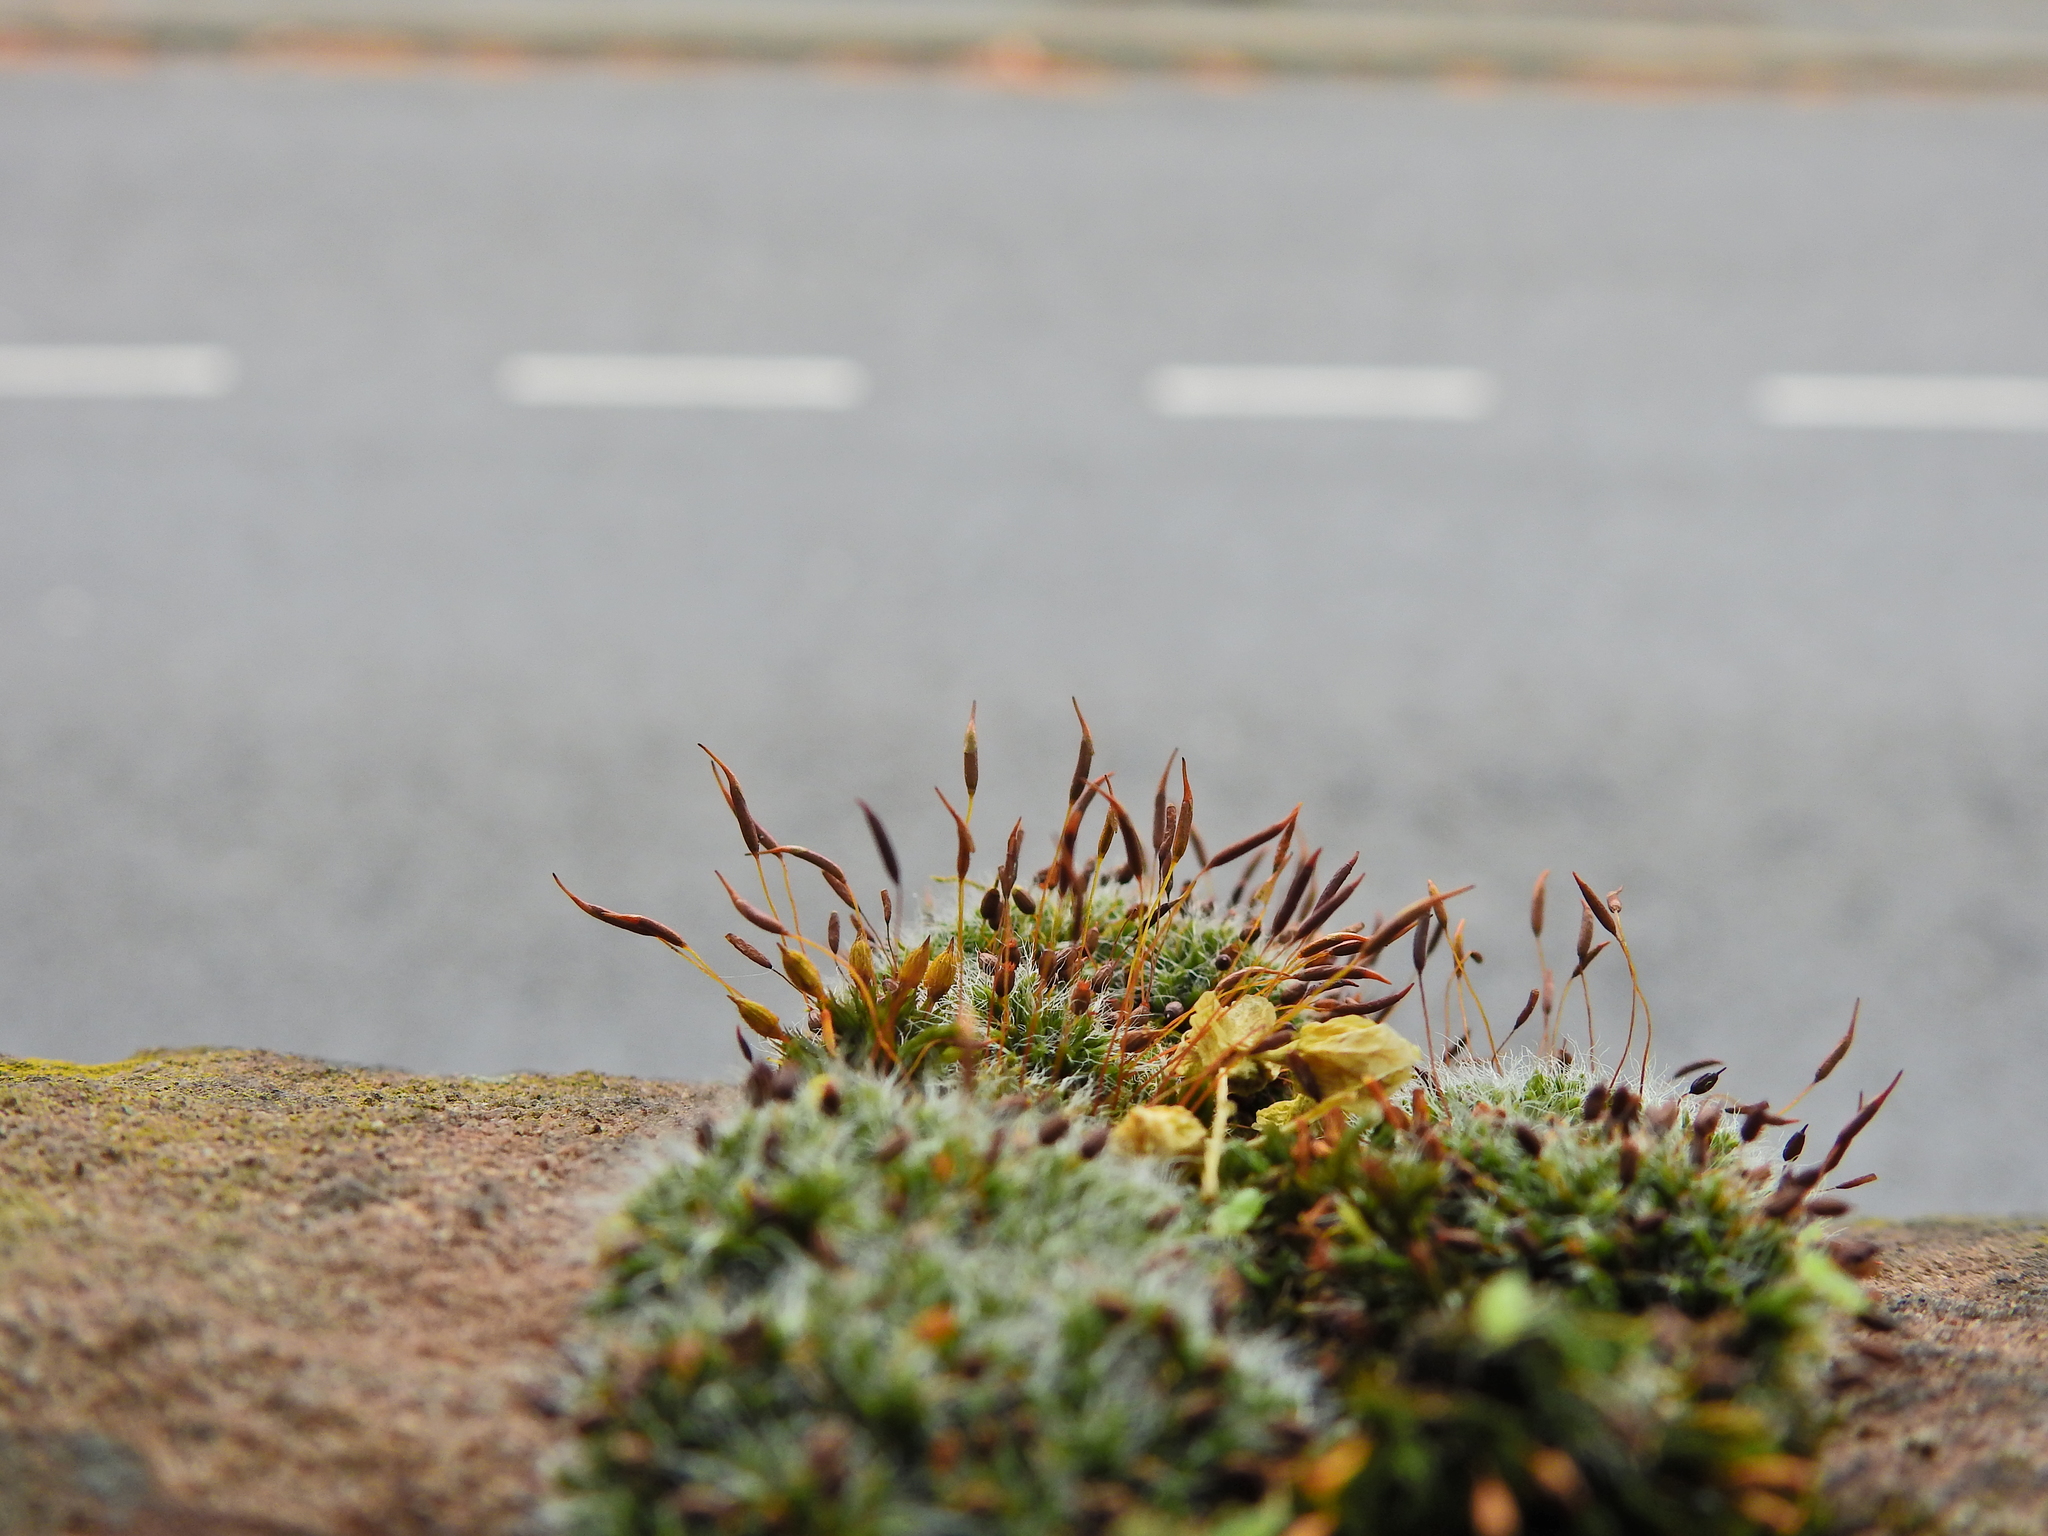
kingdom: Plantae
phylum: Bryophyta
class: Bryopsida
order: Pottiales
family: Pottiaceae
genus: Tortula
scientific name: Tortula muralis
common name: Wall screw-moss
